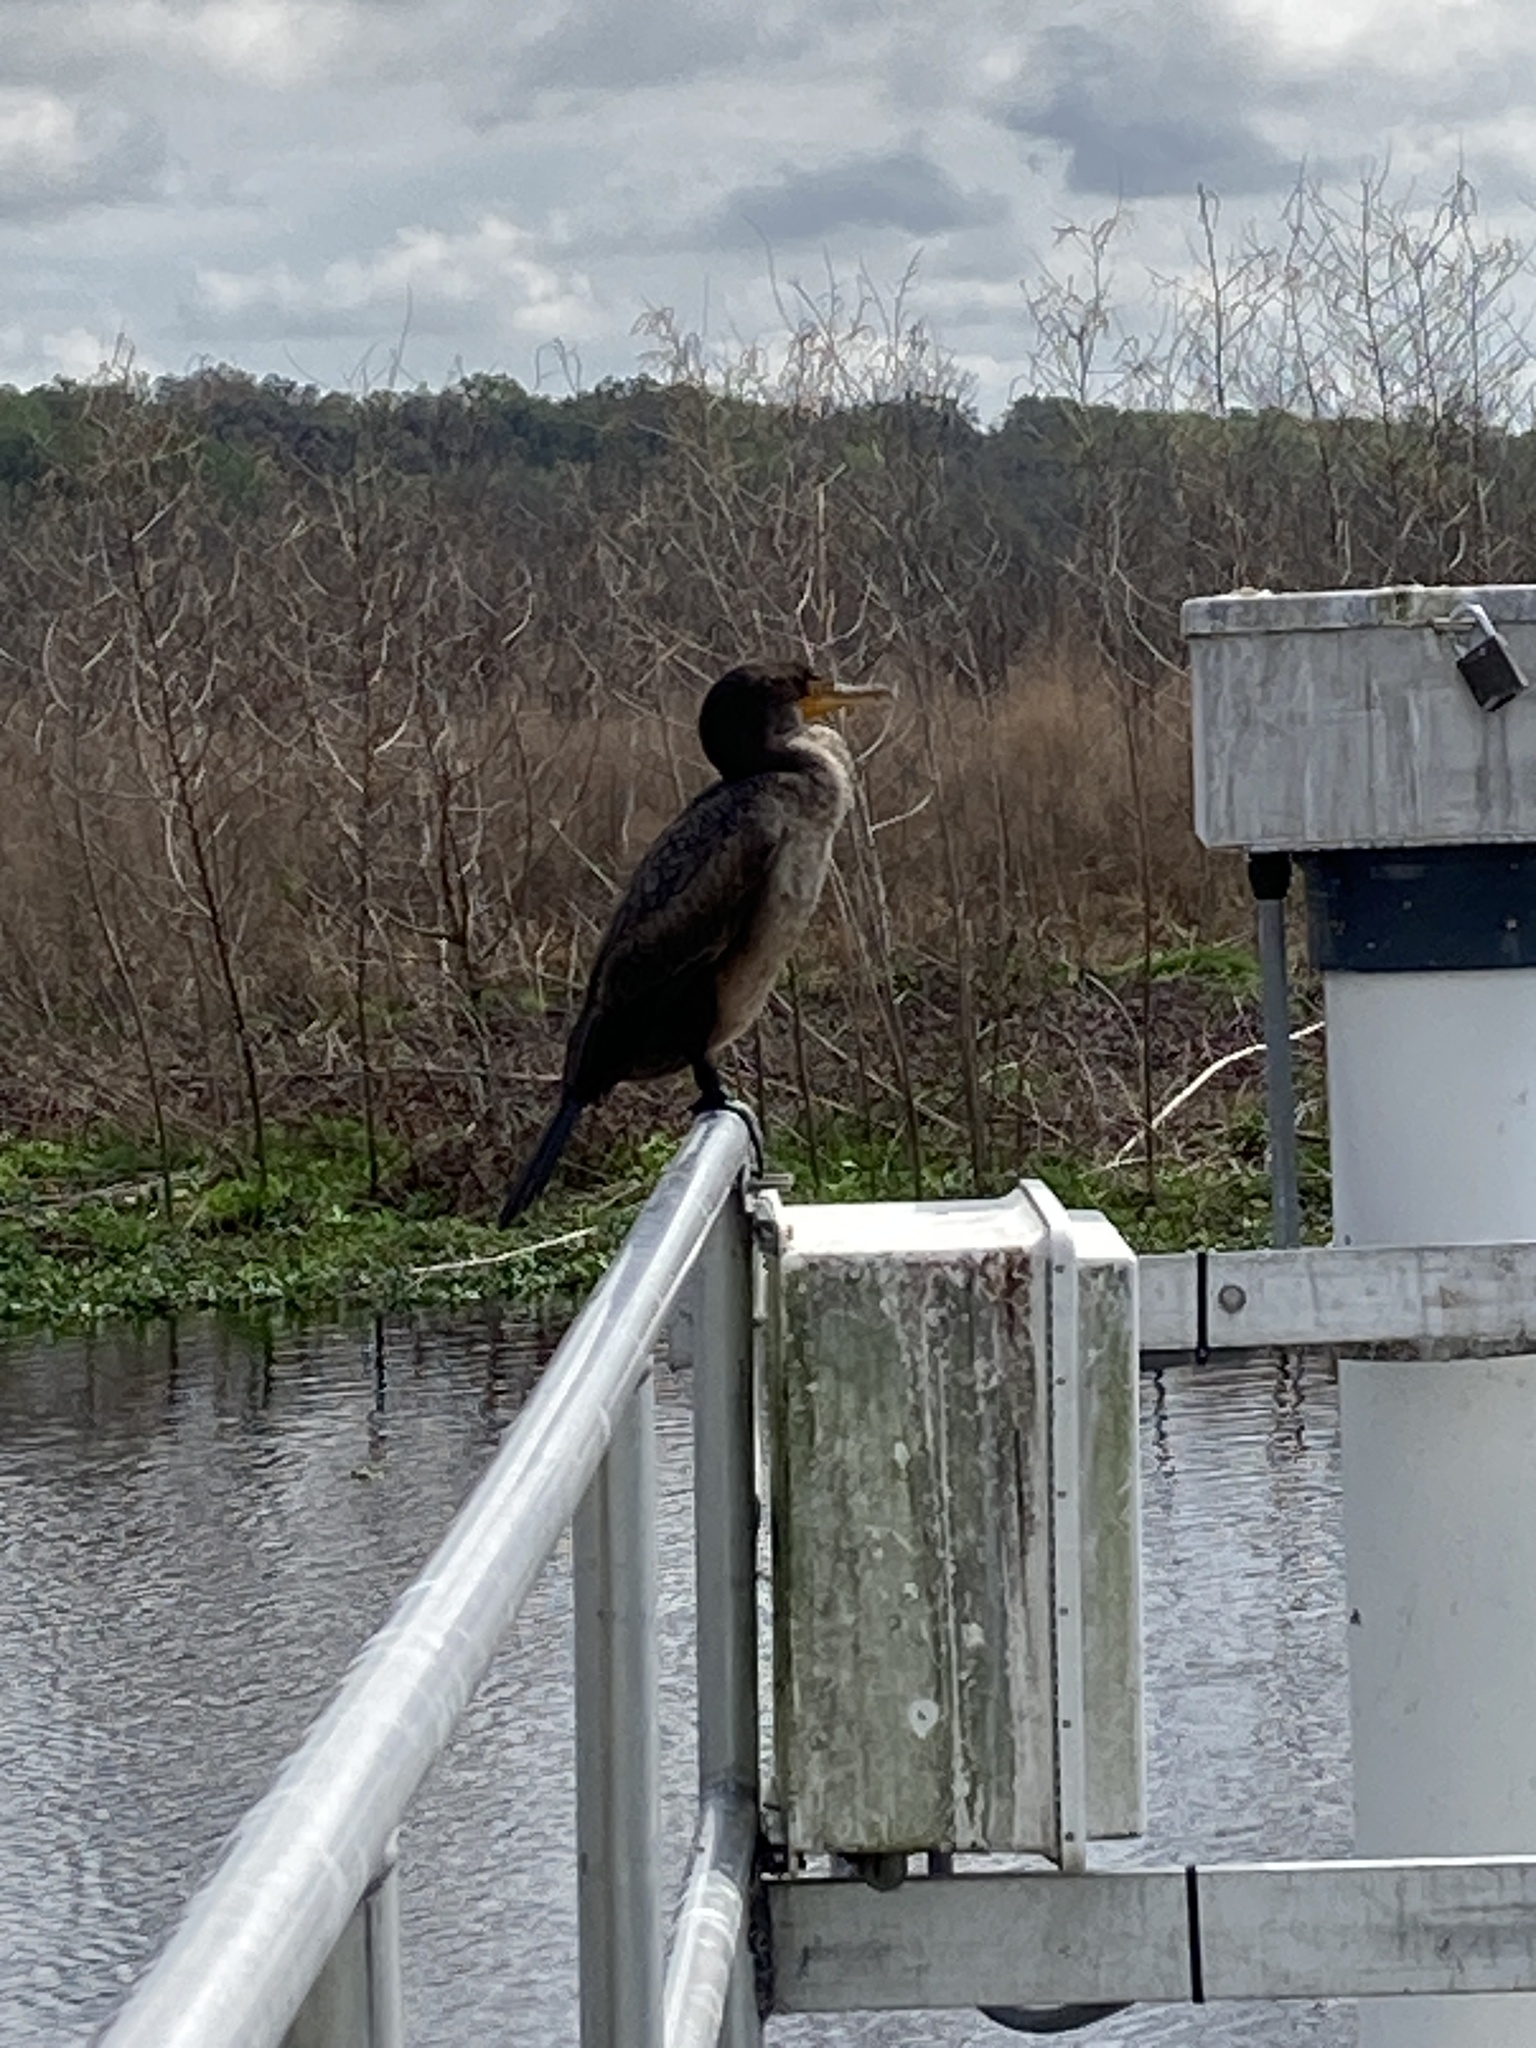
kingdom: Animalia
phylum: Chordata
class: Aves
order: Suliformes
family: Phalacrocoracidae
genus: Phalacrocorax
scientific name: Phalacrocorax auritus
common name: Double-crested cormorant
